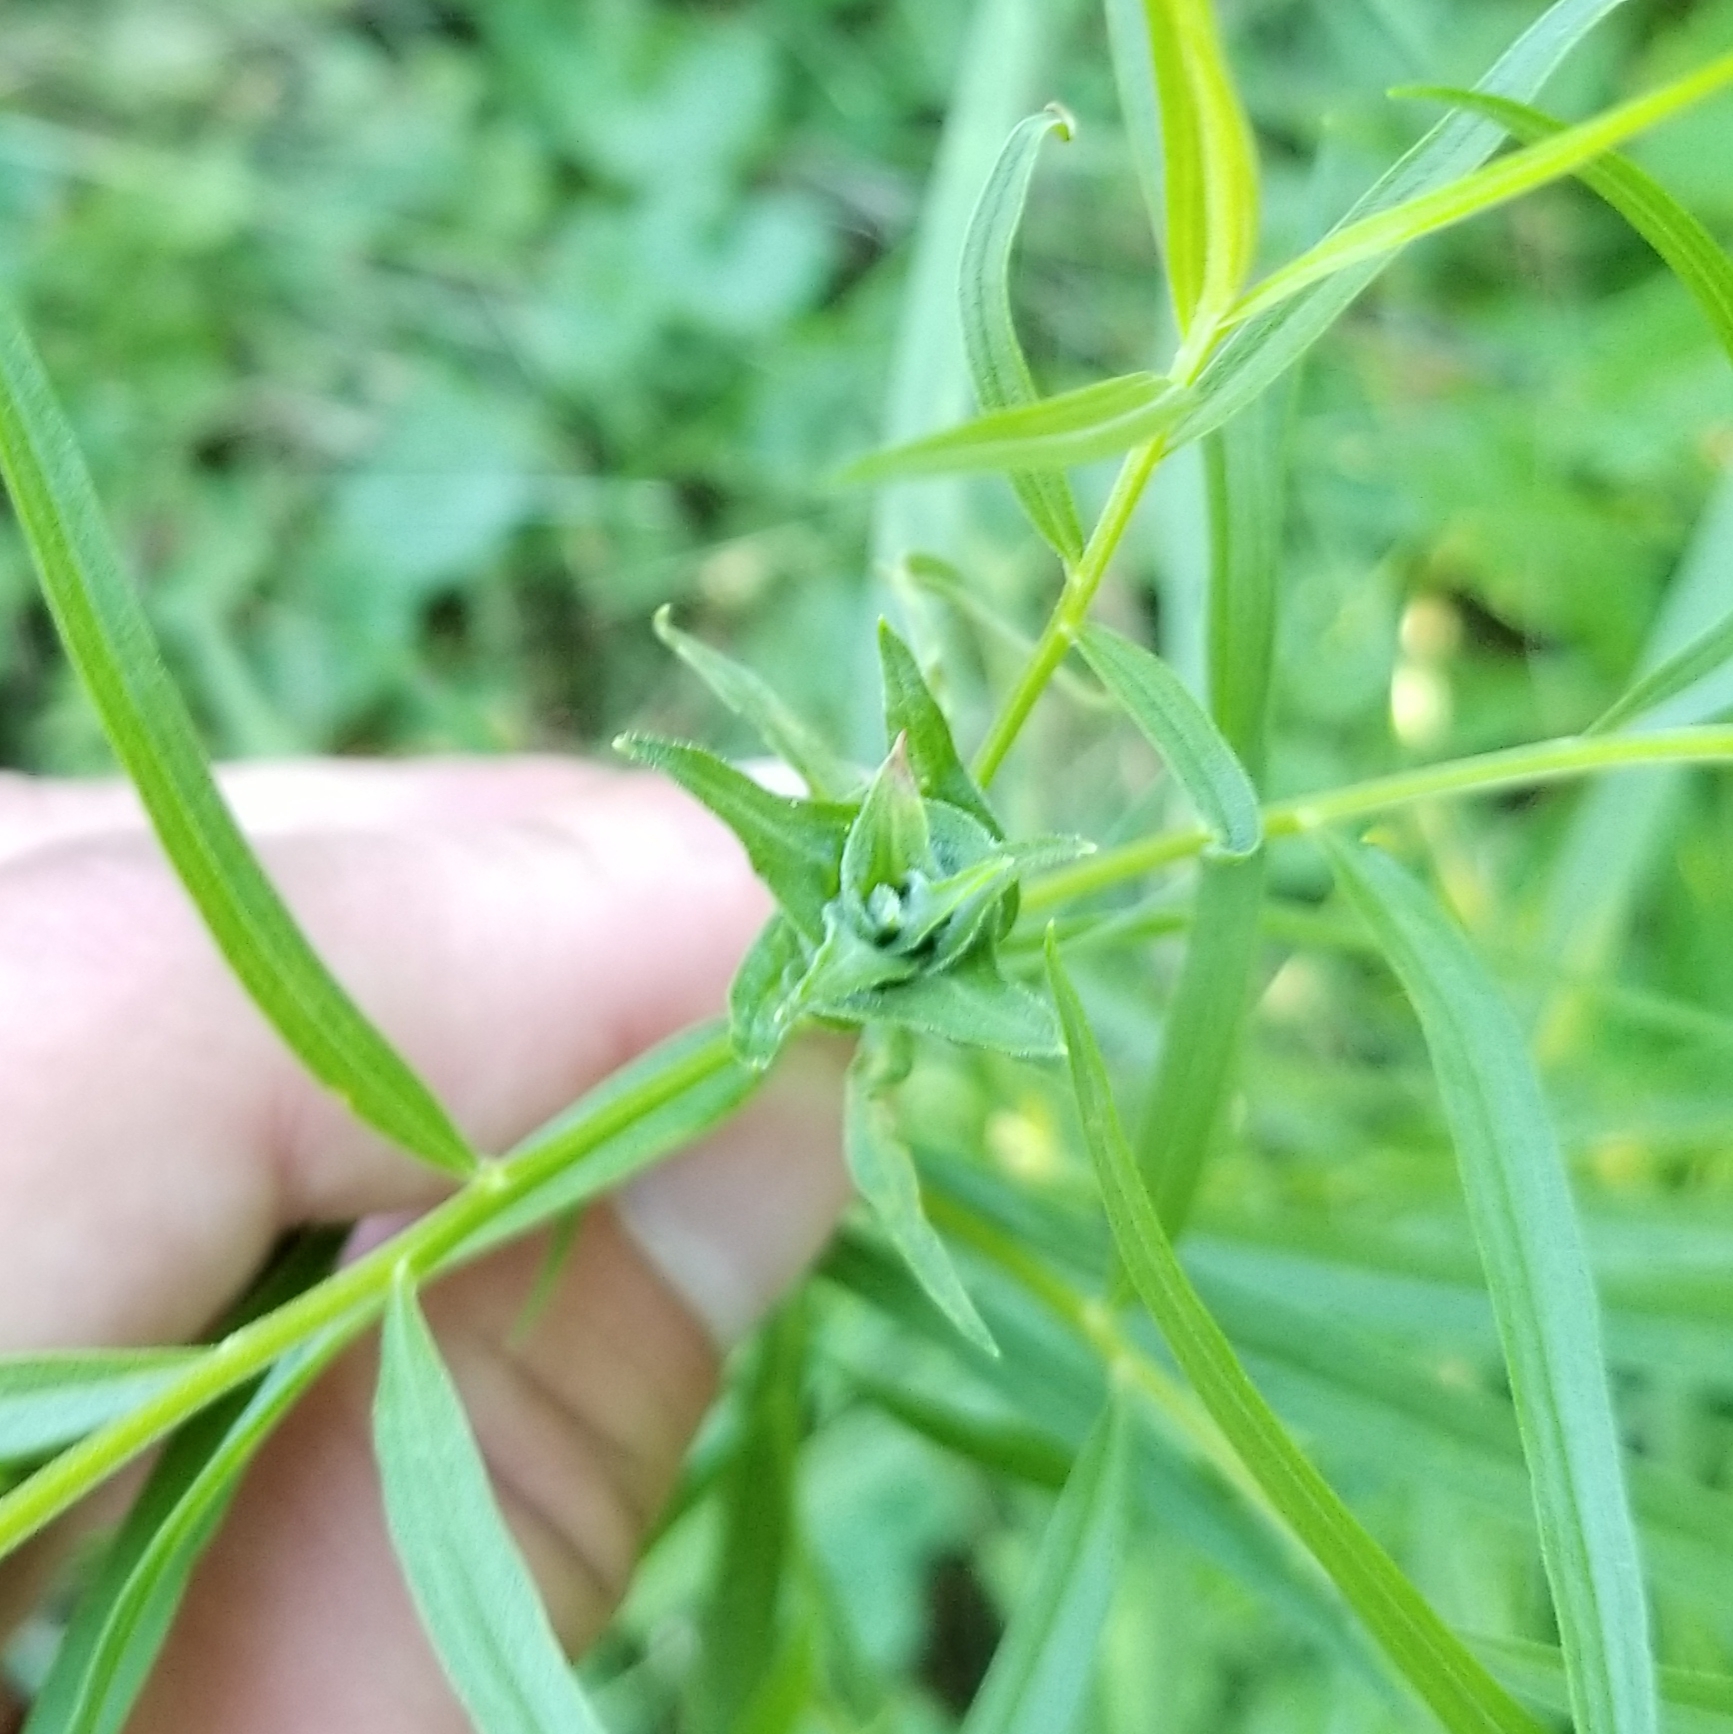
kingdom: Animalia
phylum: Arthropoda
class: Insecta
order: Diptera
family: Cecidomyiidae
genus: Asphondylia
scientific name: Asphondylia pseudorosa
